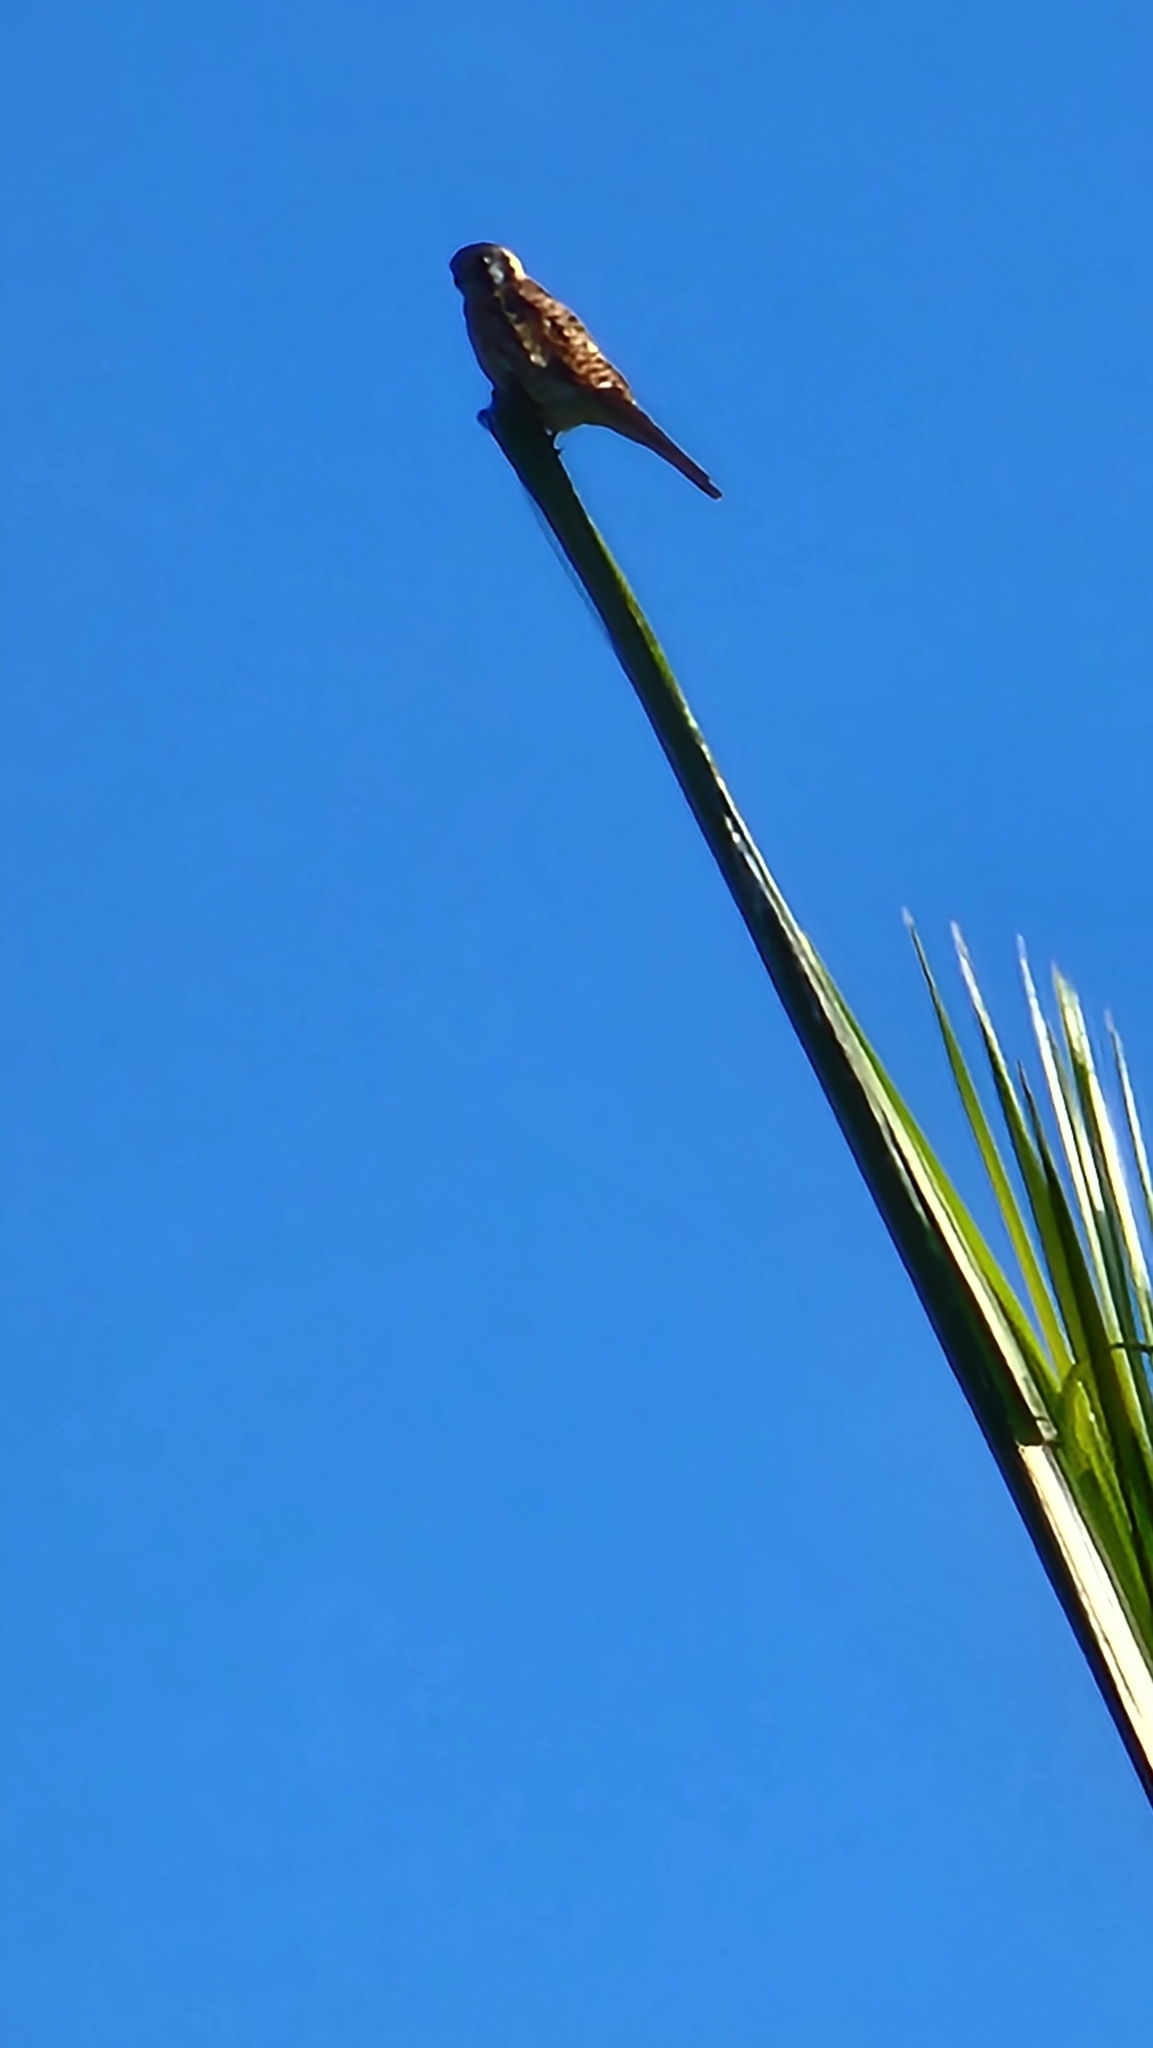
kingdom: Animalia
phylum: Chordata
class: Aves
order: Falconiformes
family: Falconidae
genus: Falco
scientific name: Falco sparverius
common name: American kestrel
